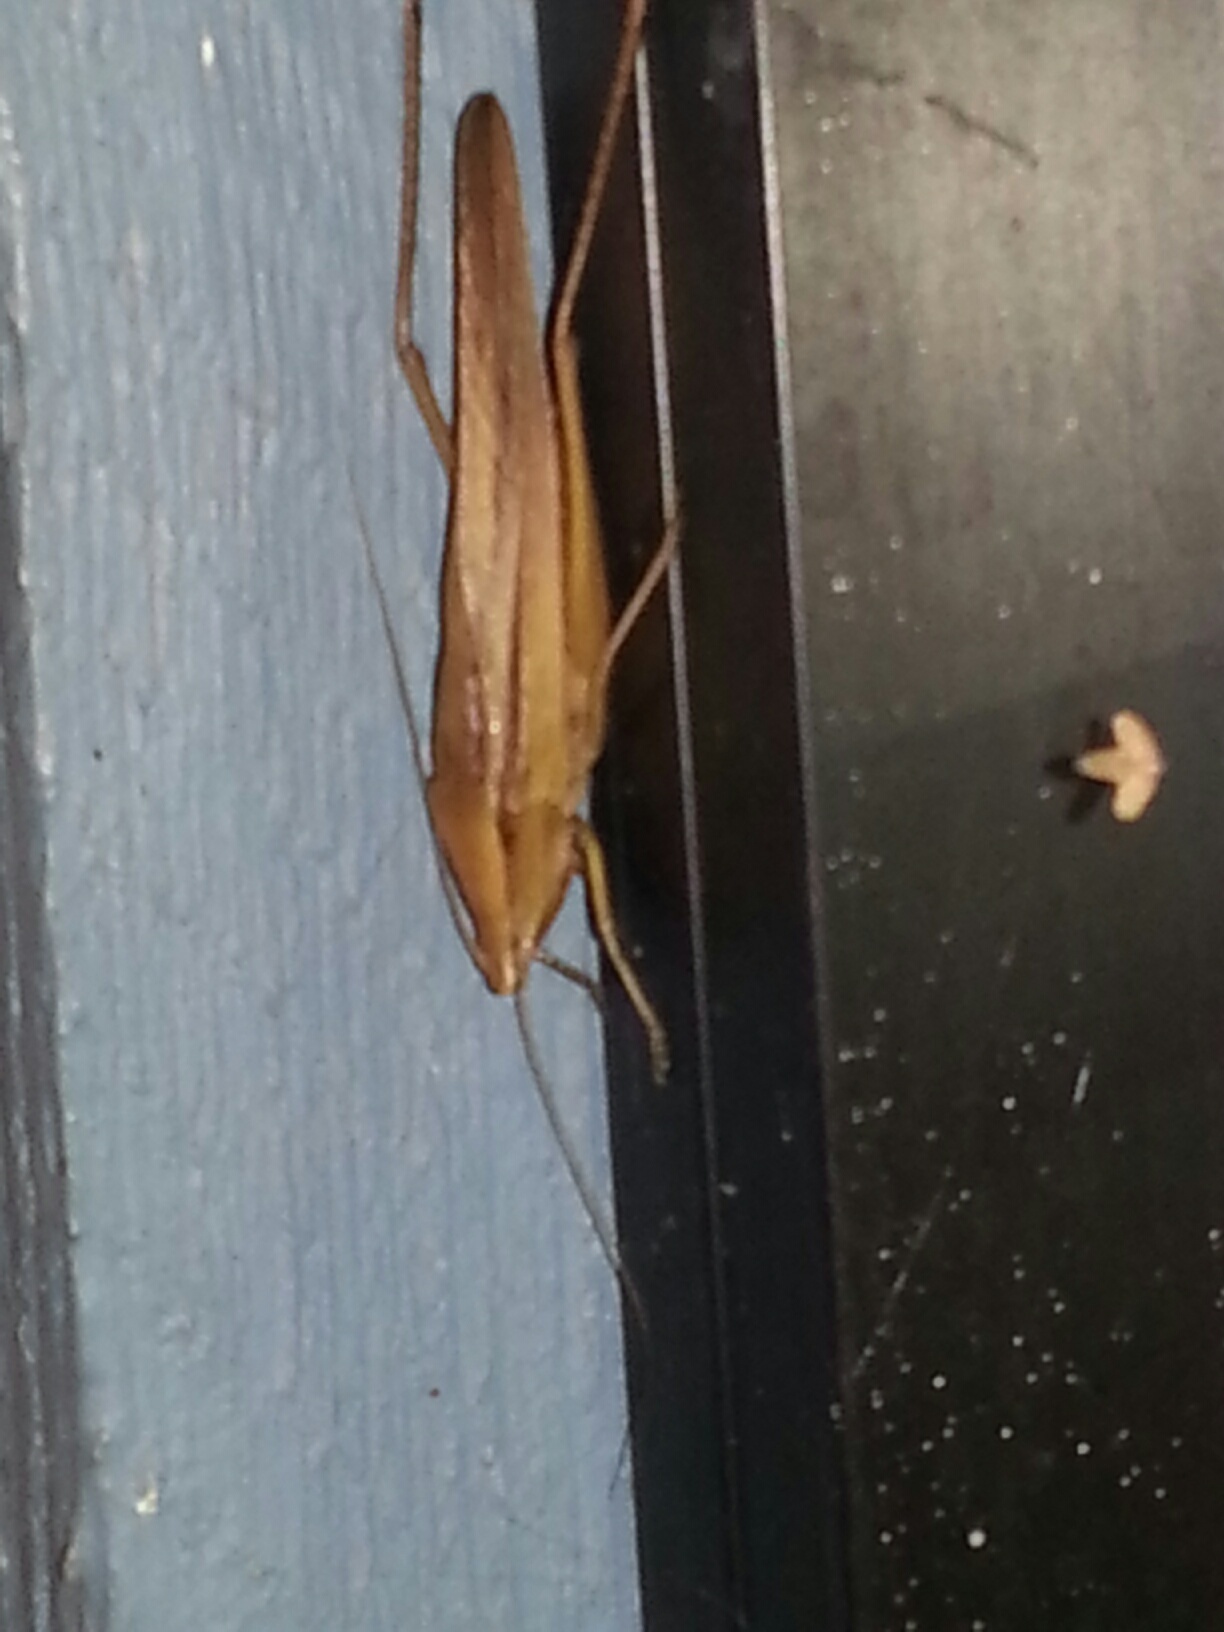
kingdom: Animalia
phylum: Arthropoda
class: Insecta
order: Orthoptera
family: Tettigoniidae
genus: Neoconocephalus
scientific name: Neoconocephalus triops
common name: Broad-tipped conehead
